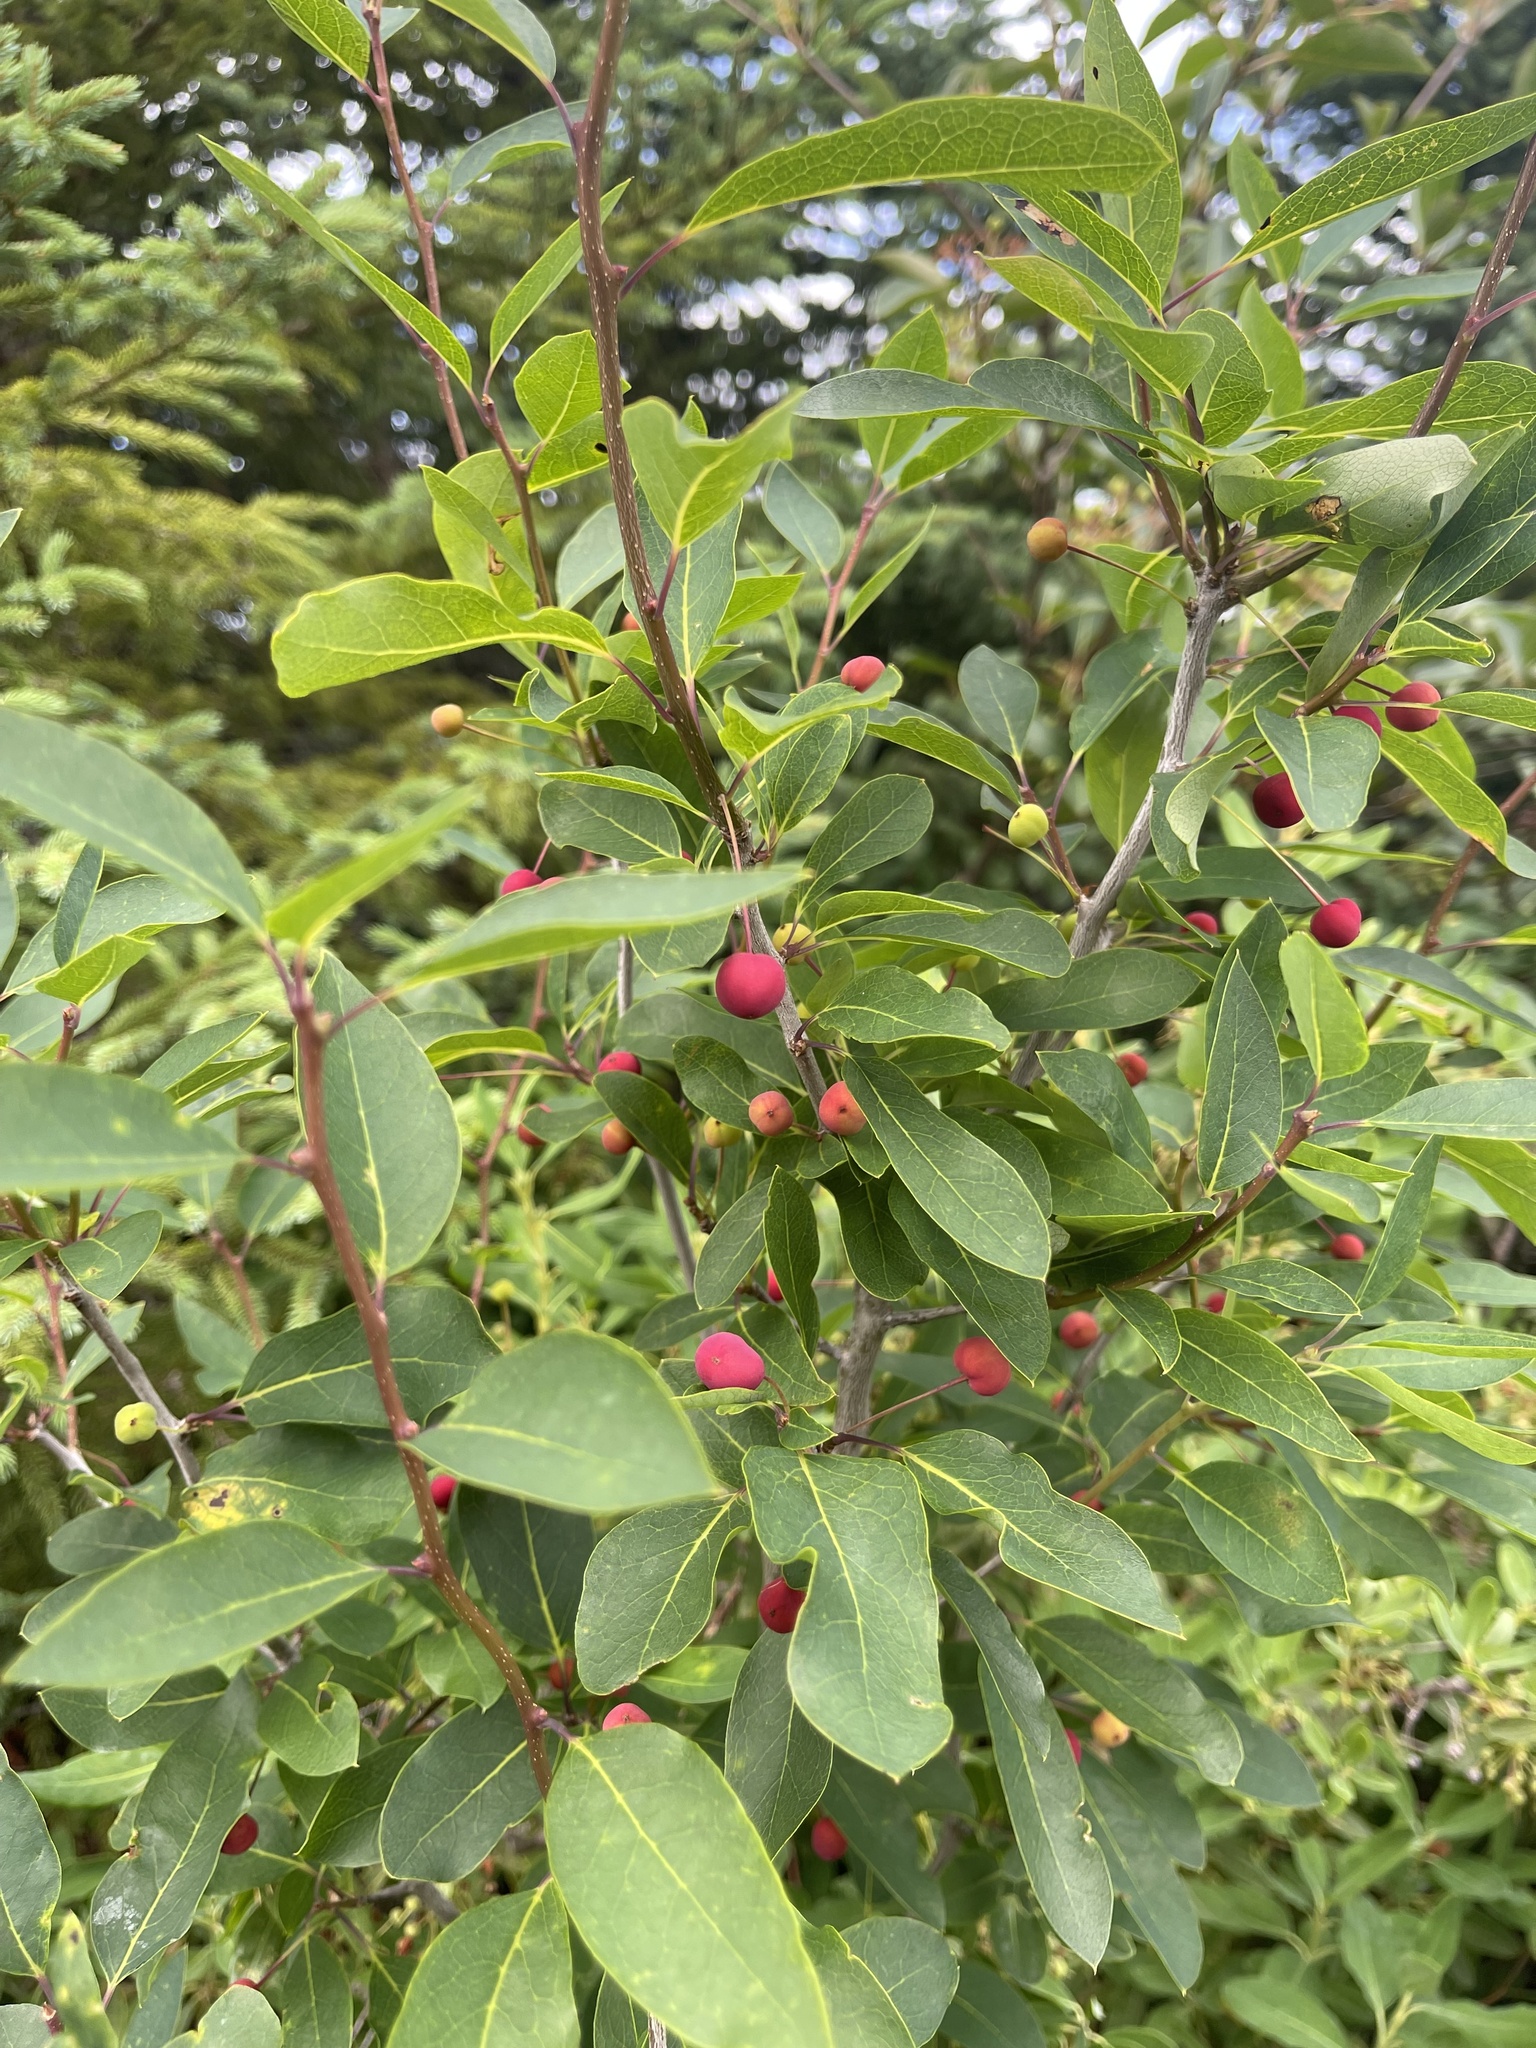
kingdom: Plantae
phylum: Tracheophyta
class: Magnoliopsida
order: Aquifoliales
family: Aquifoliaceae
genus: Ilex
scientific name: Ilex mucronata
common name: Catberry
